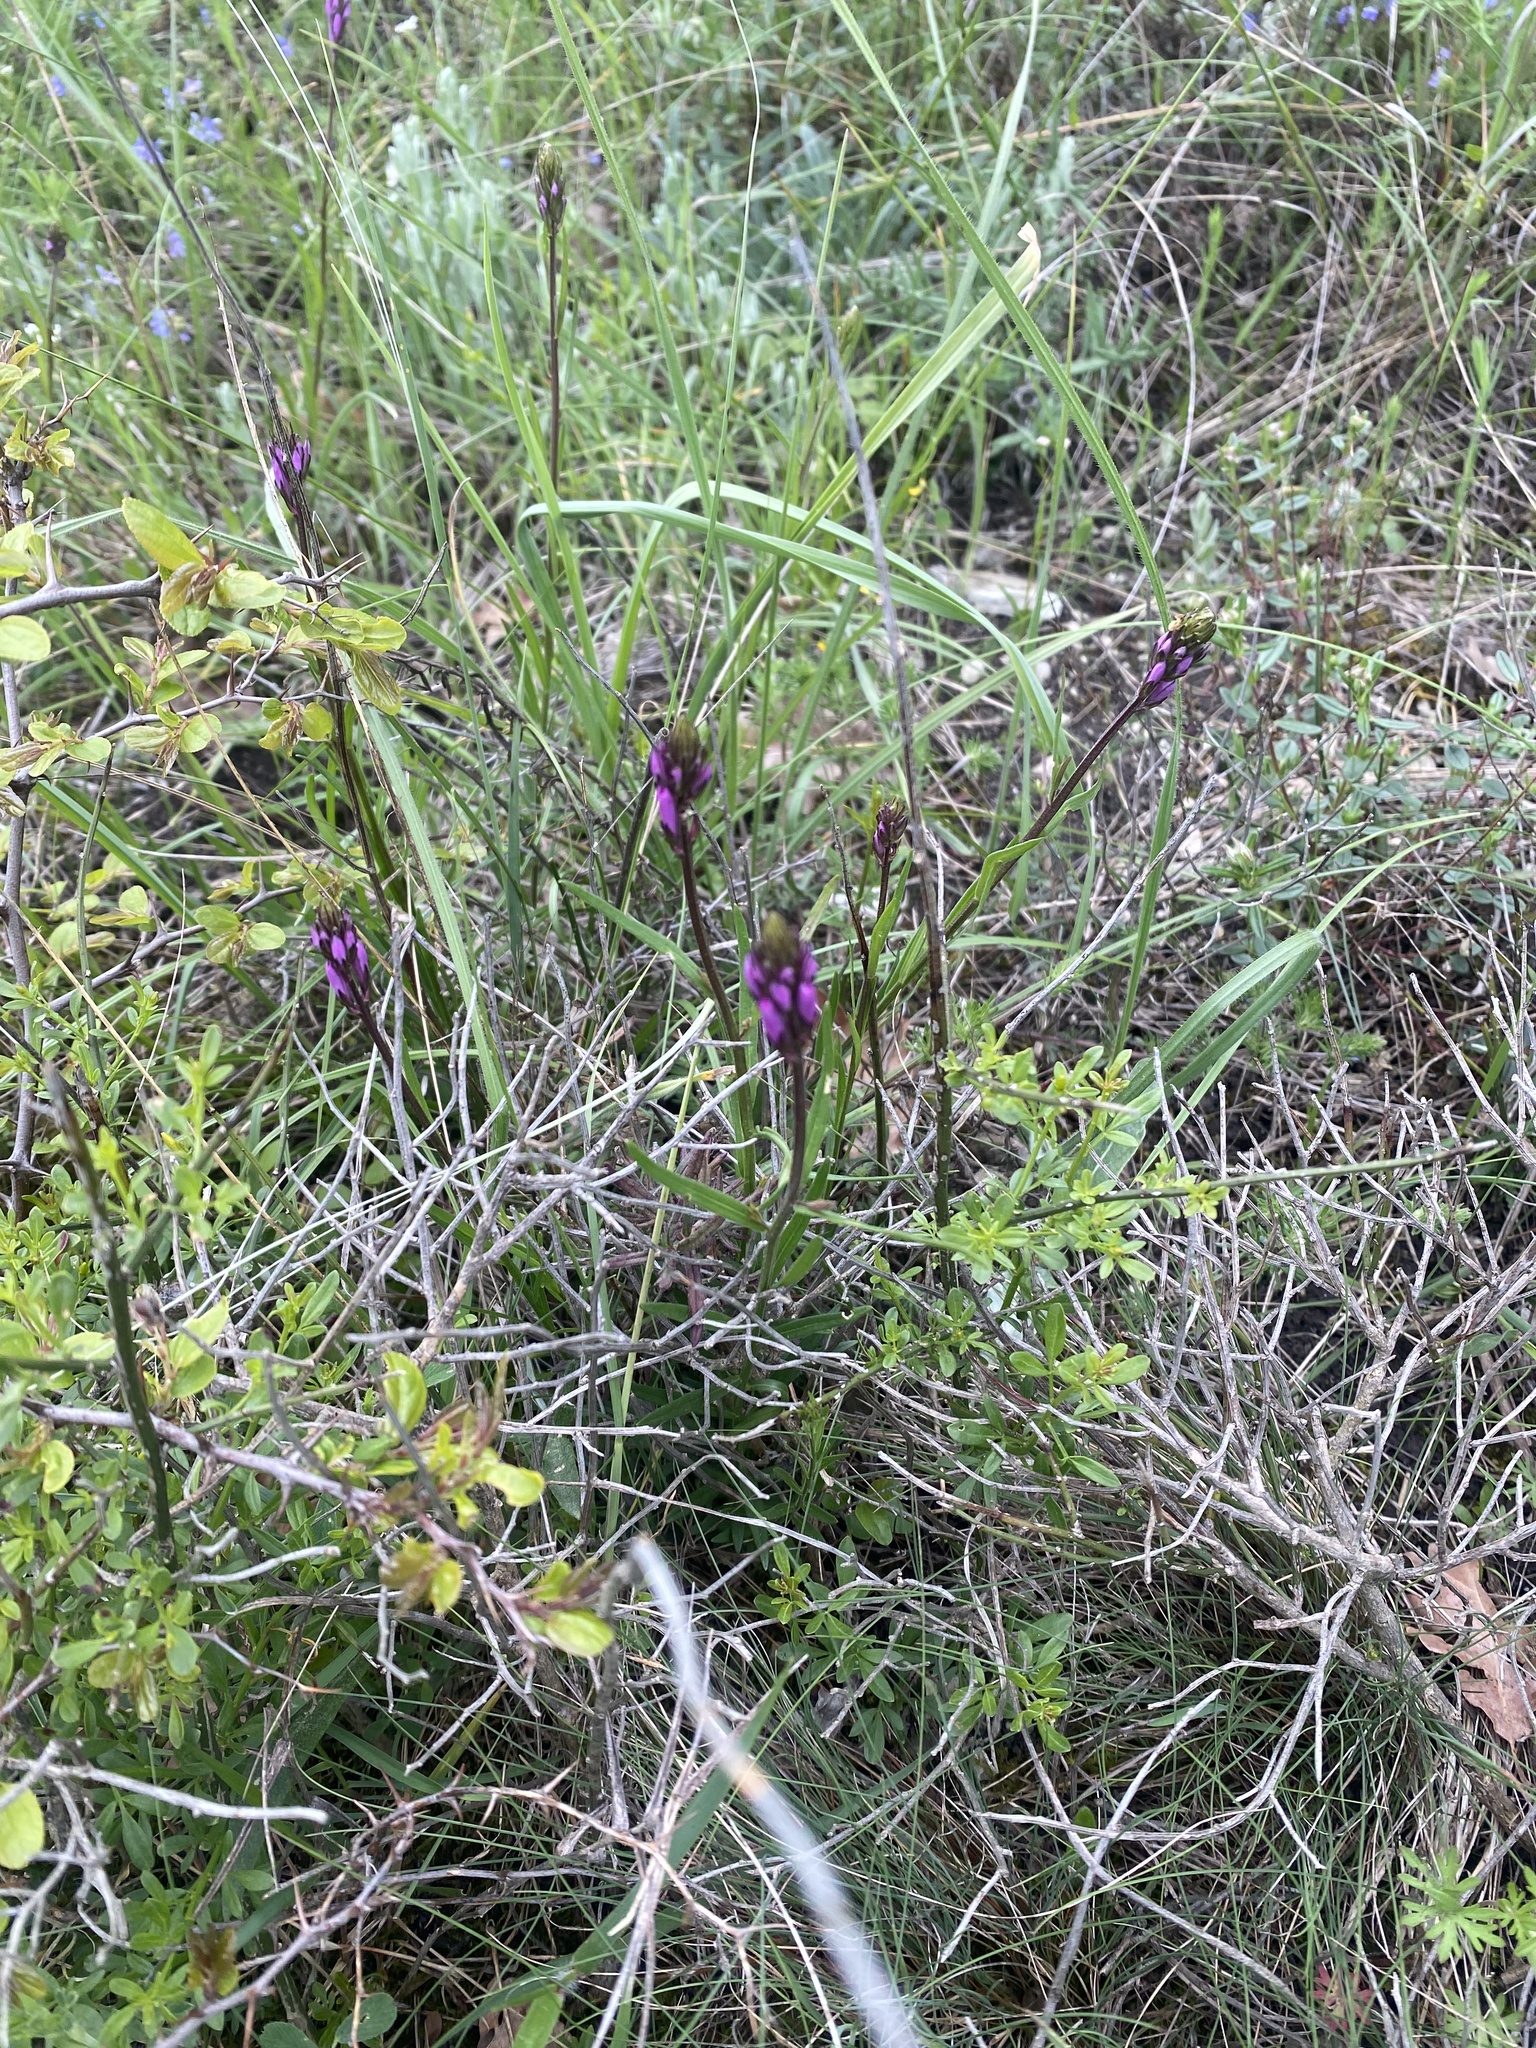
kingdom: Plantae
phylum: Tracheophyta
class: Magnoliopsida
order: Fabales
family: Polygalaceae
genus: Polygala
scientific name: Polygala major
